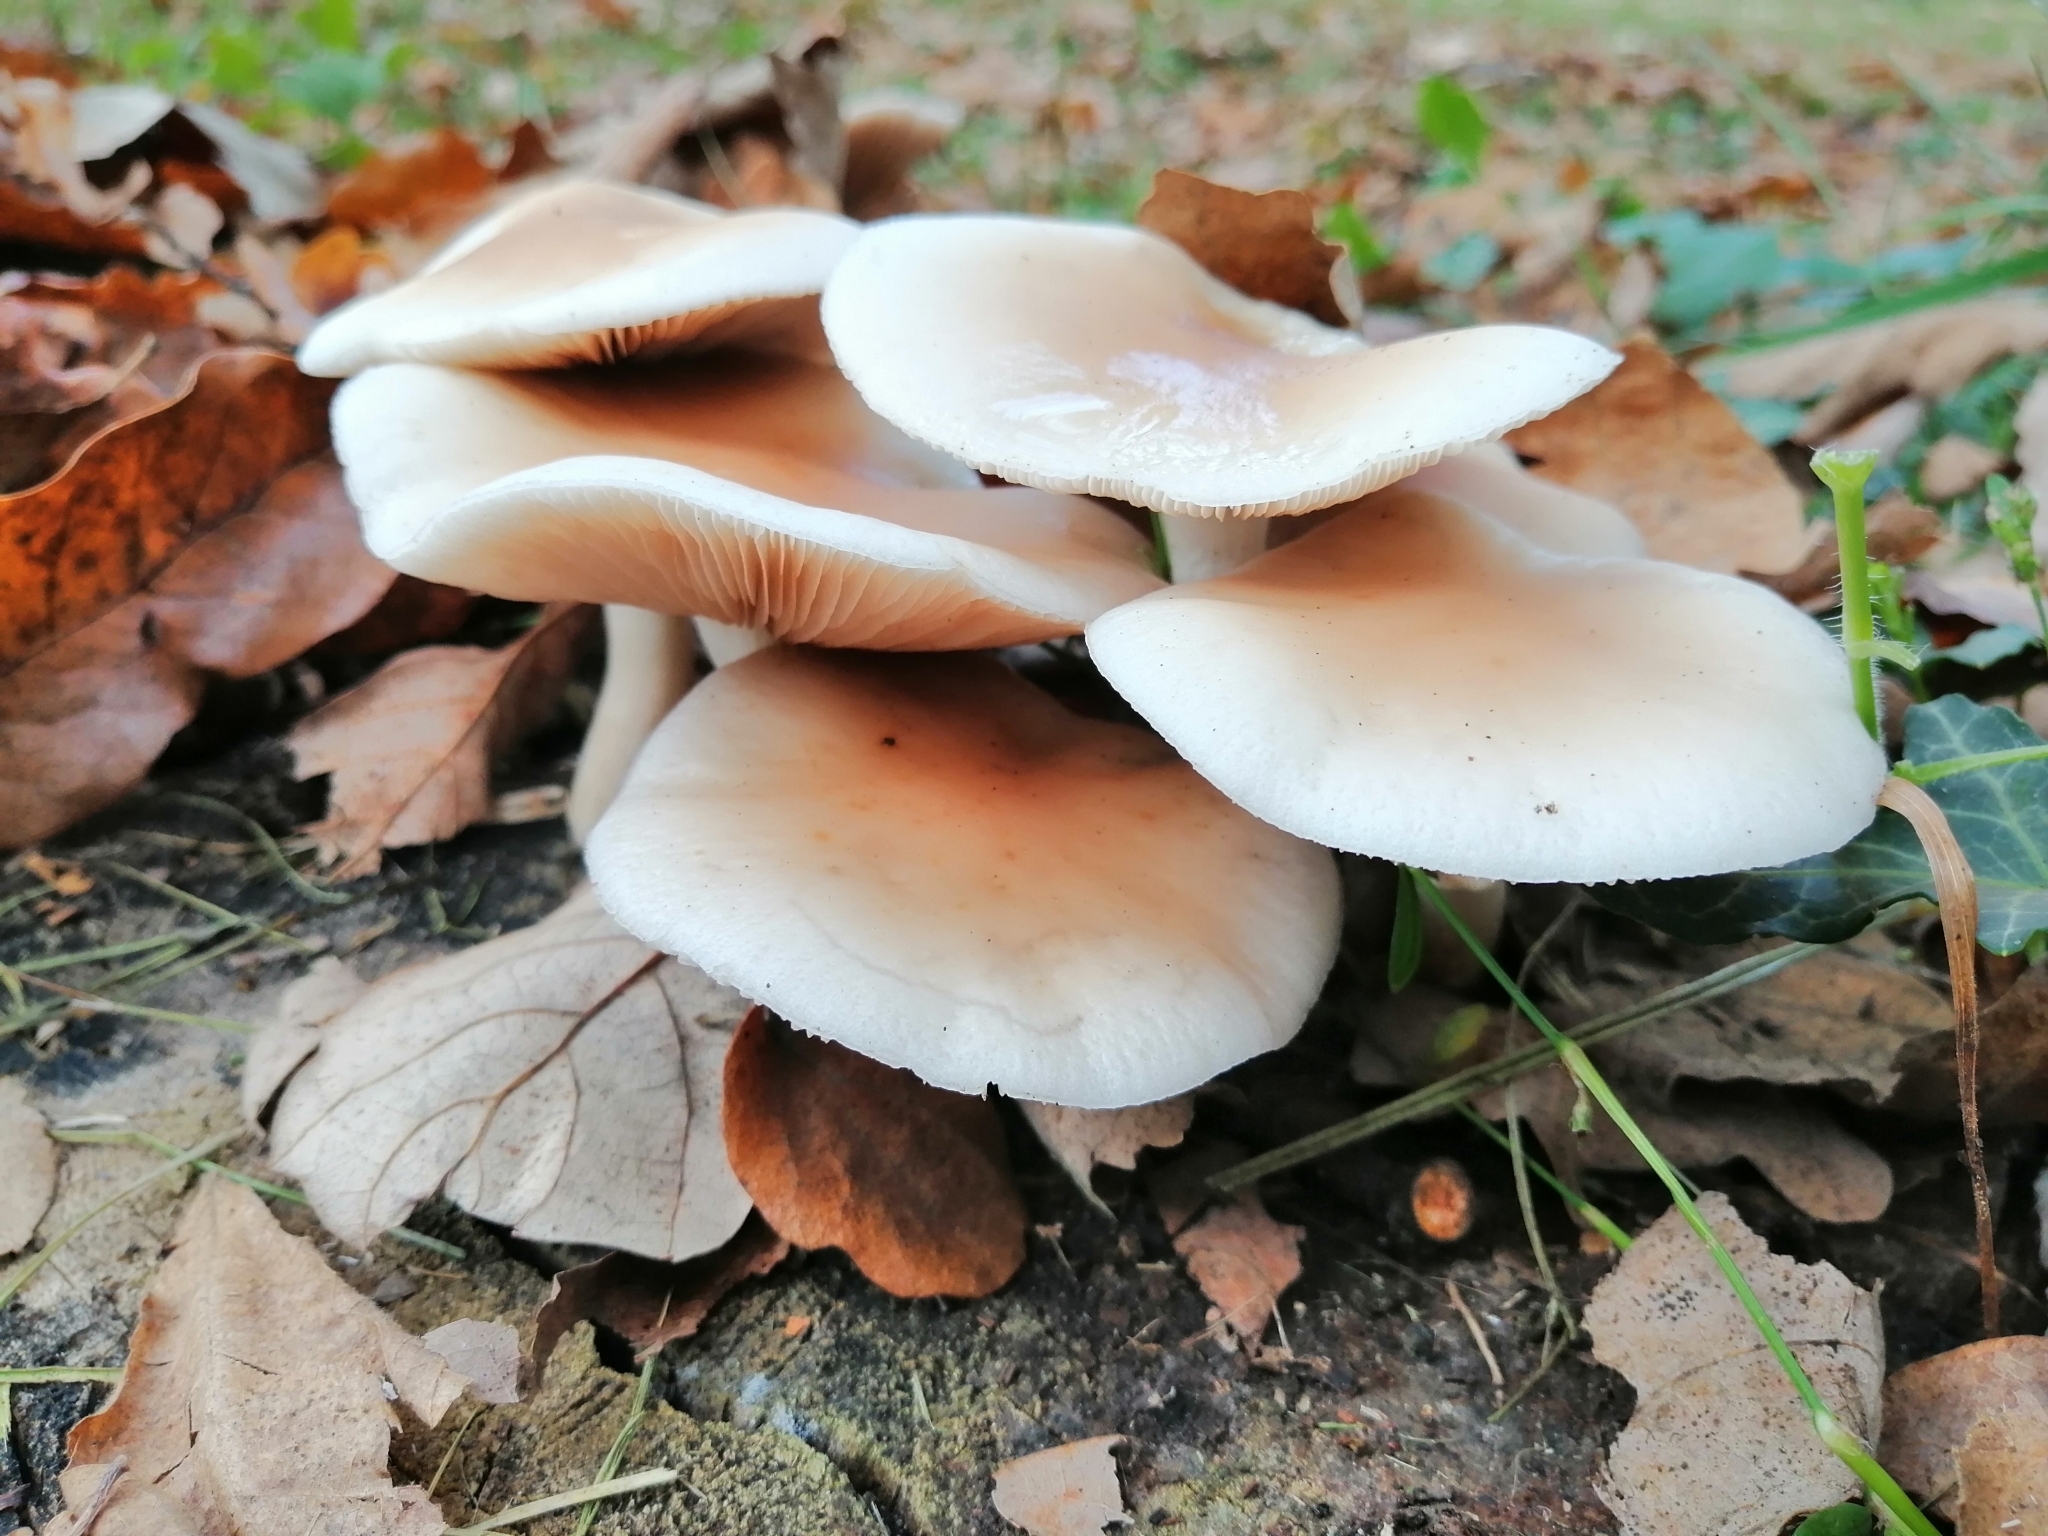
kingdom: Fungi
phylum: Basidiomycota
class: Agaricomycetes
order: Agaricales
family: Tubariaceae
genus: Cyclocybe
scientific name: Cyclocybe cylindracea
